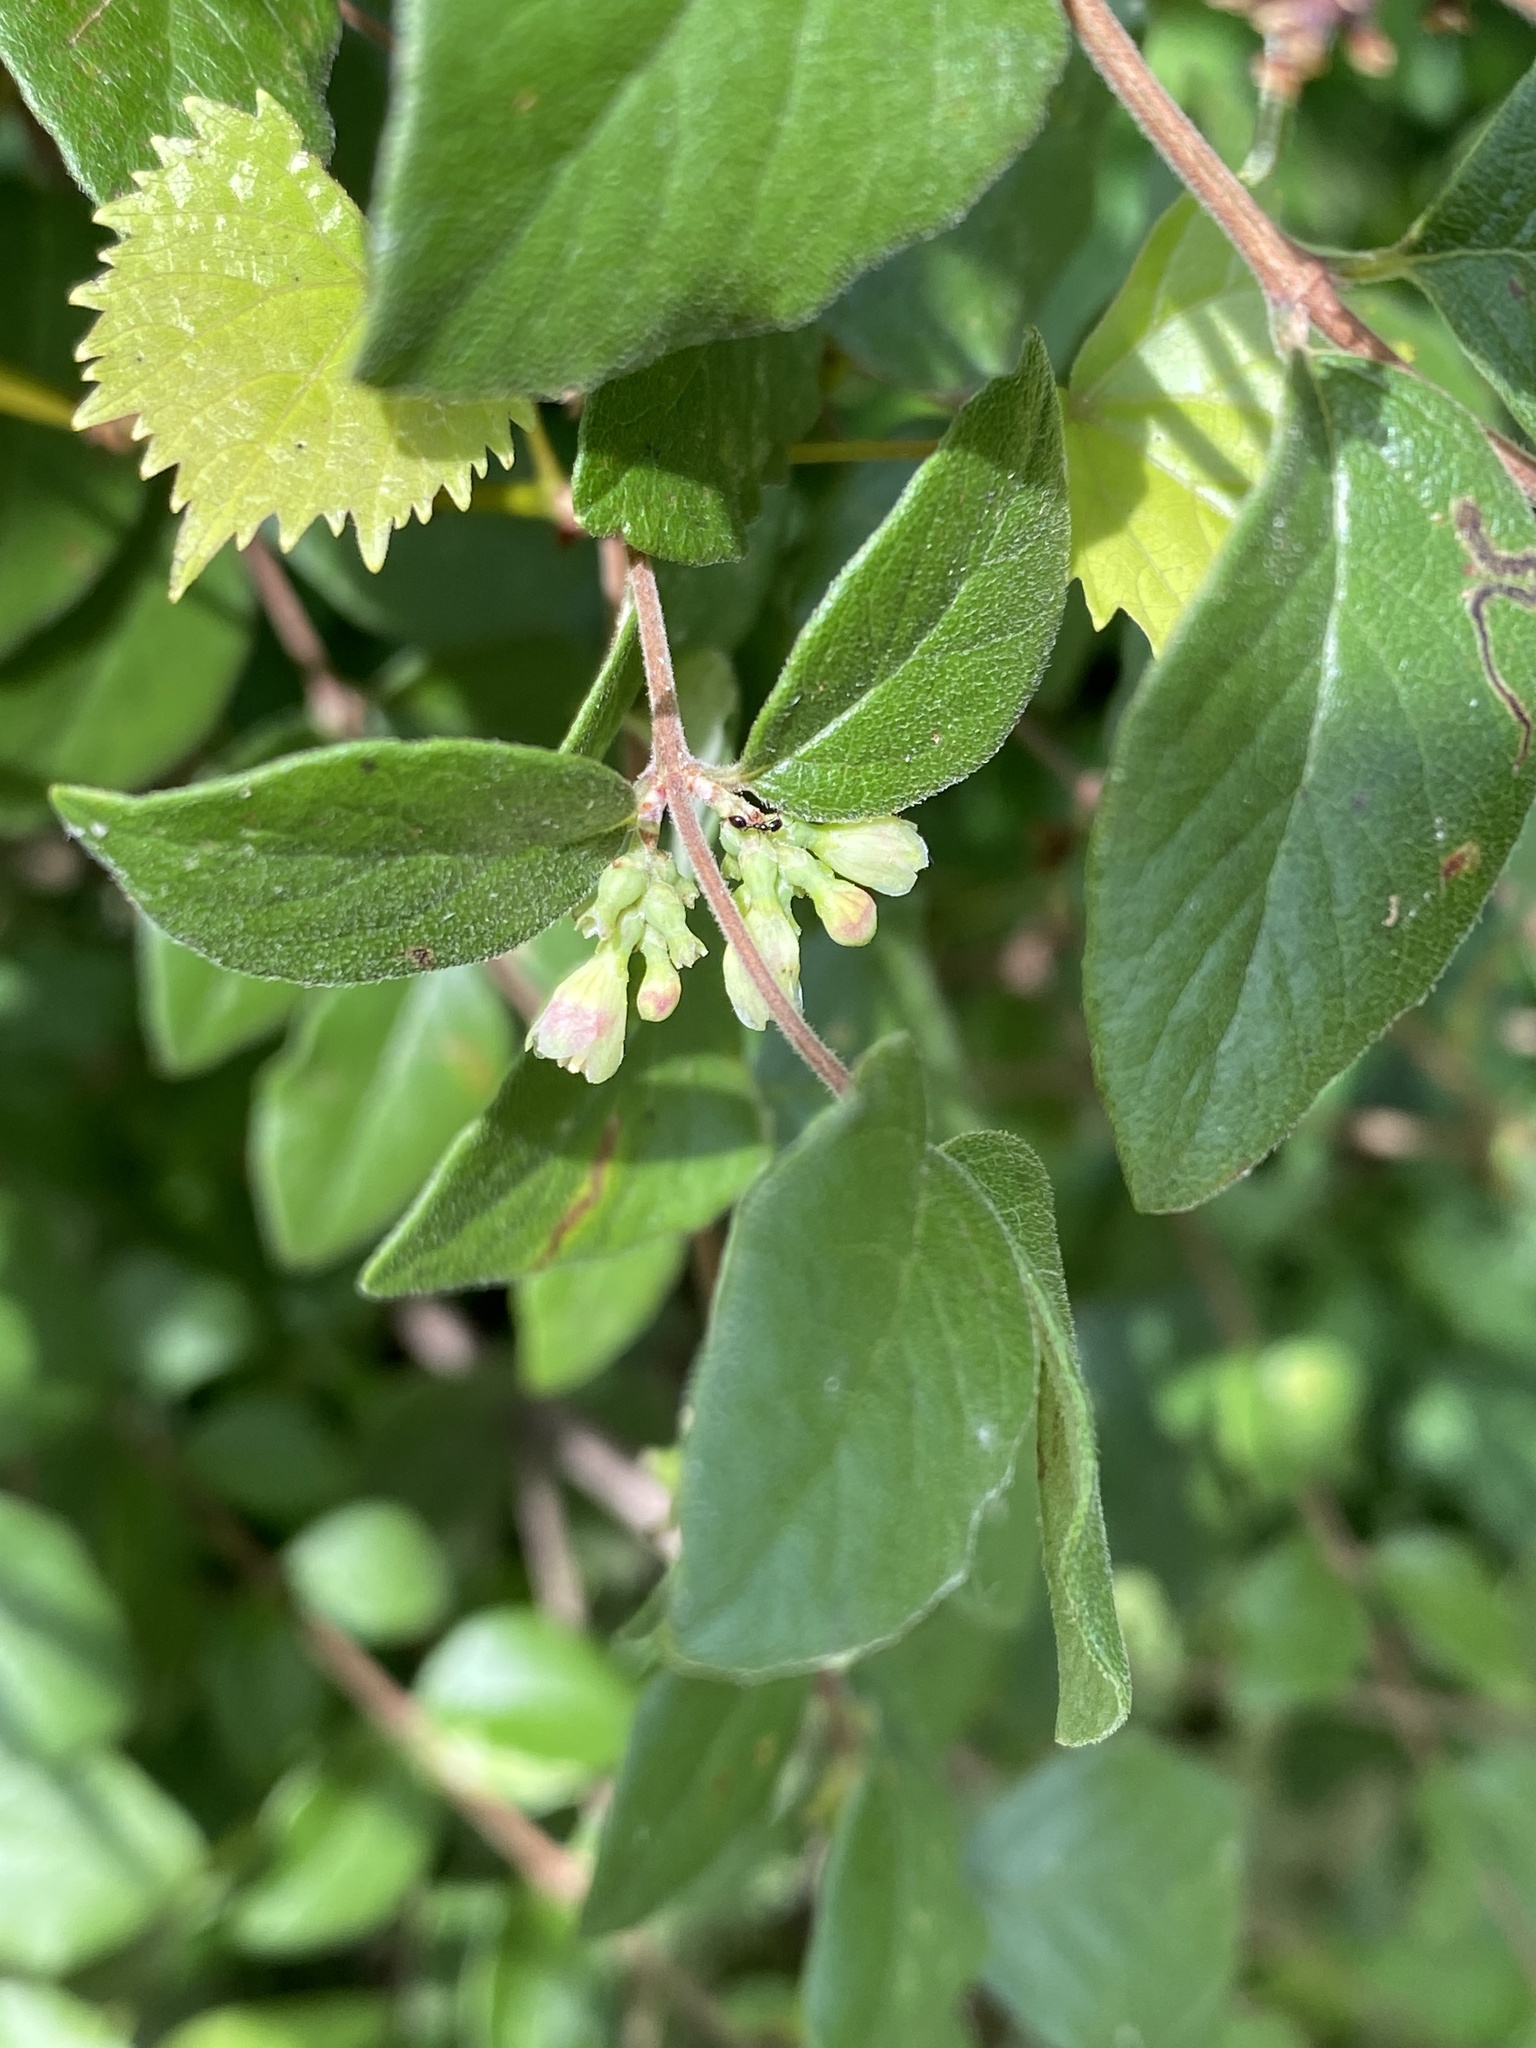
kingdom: Plantae
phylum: Tracheophyta
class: Magnoliopsida
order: Dipsacales
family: Caprifoliaceae
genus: Symphoricarpos
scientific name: Symphoricarpos orbiculatus
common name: Coralberry
